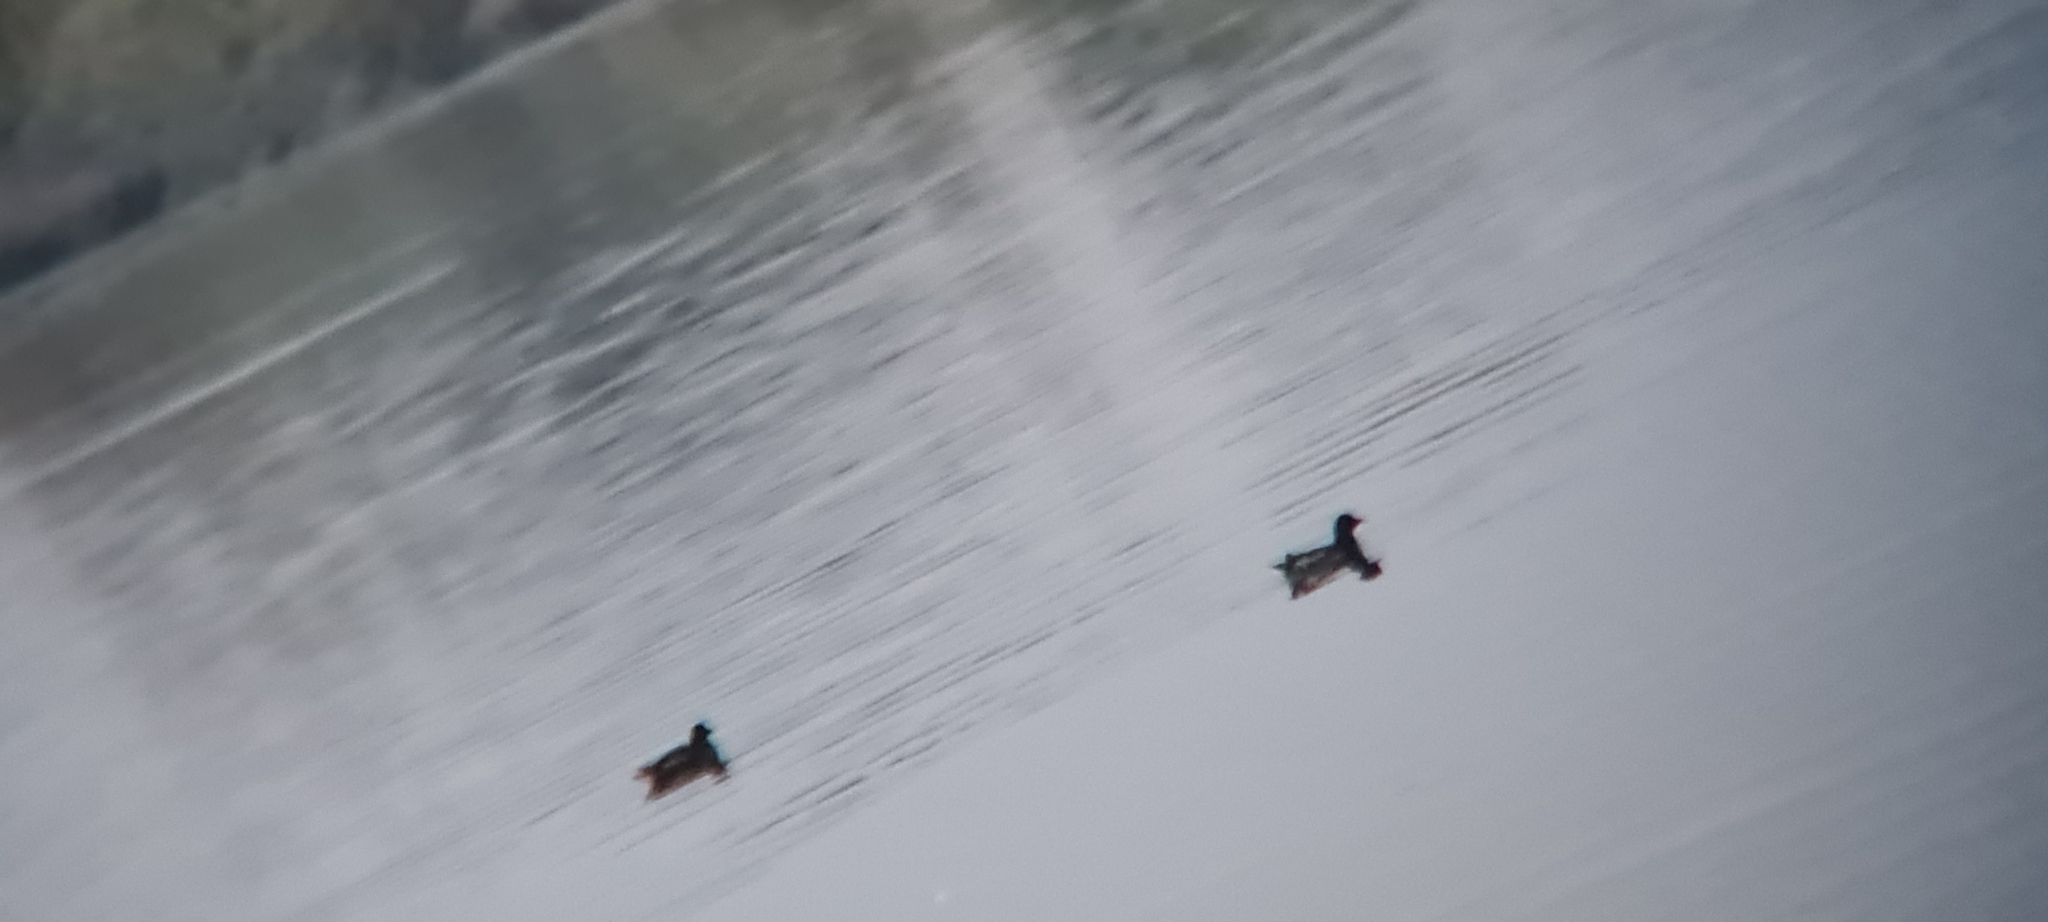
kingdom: Animalia
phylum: Chordata
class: Aves
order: Gruiformes
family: Rallidae
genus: Gallinula
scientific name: Gallinula chloropus
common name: Common moorhen
